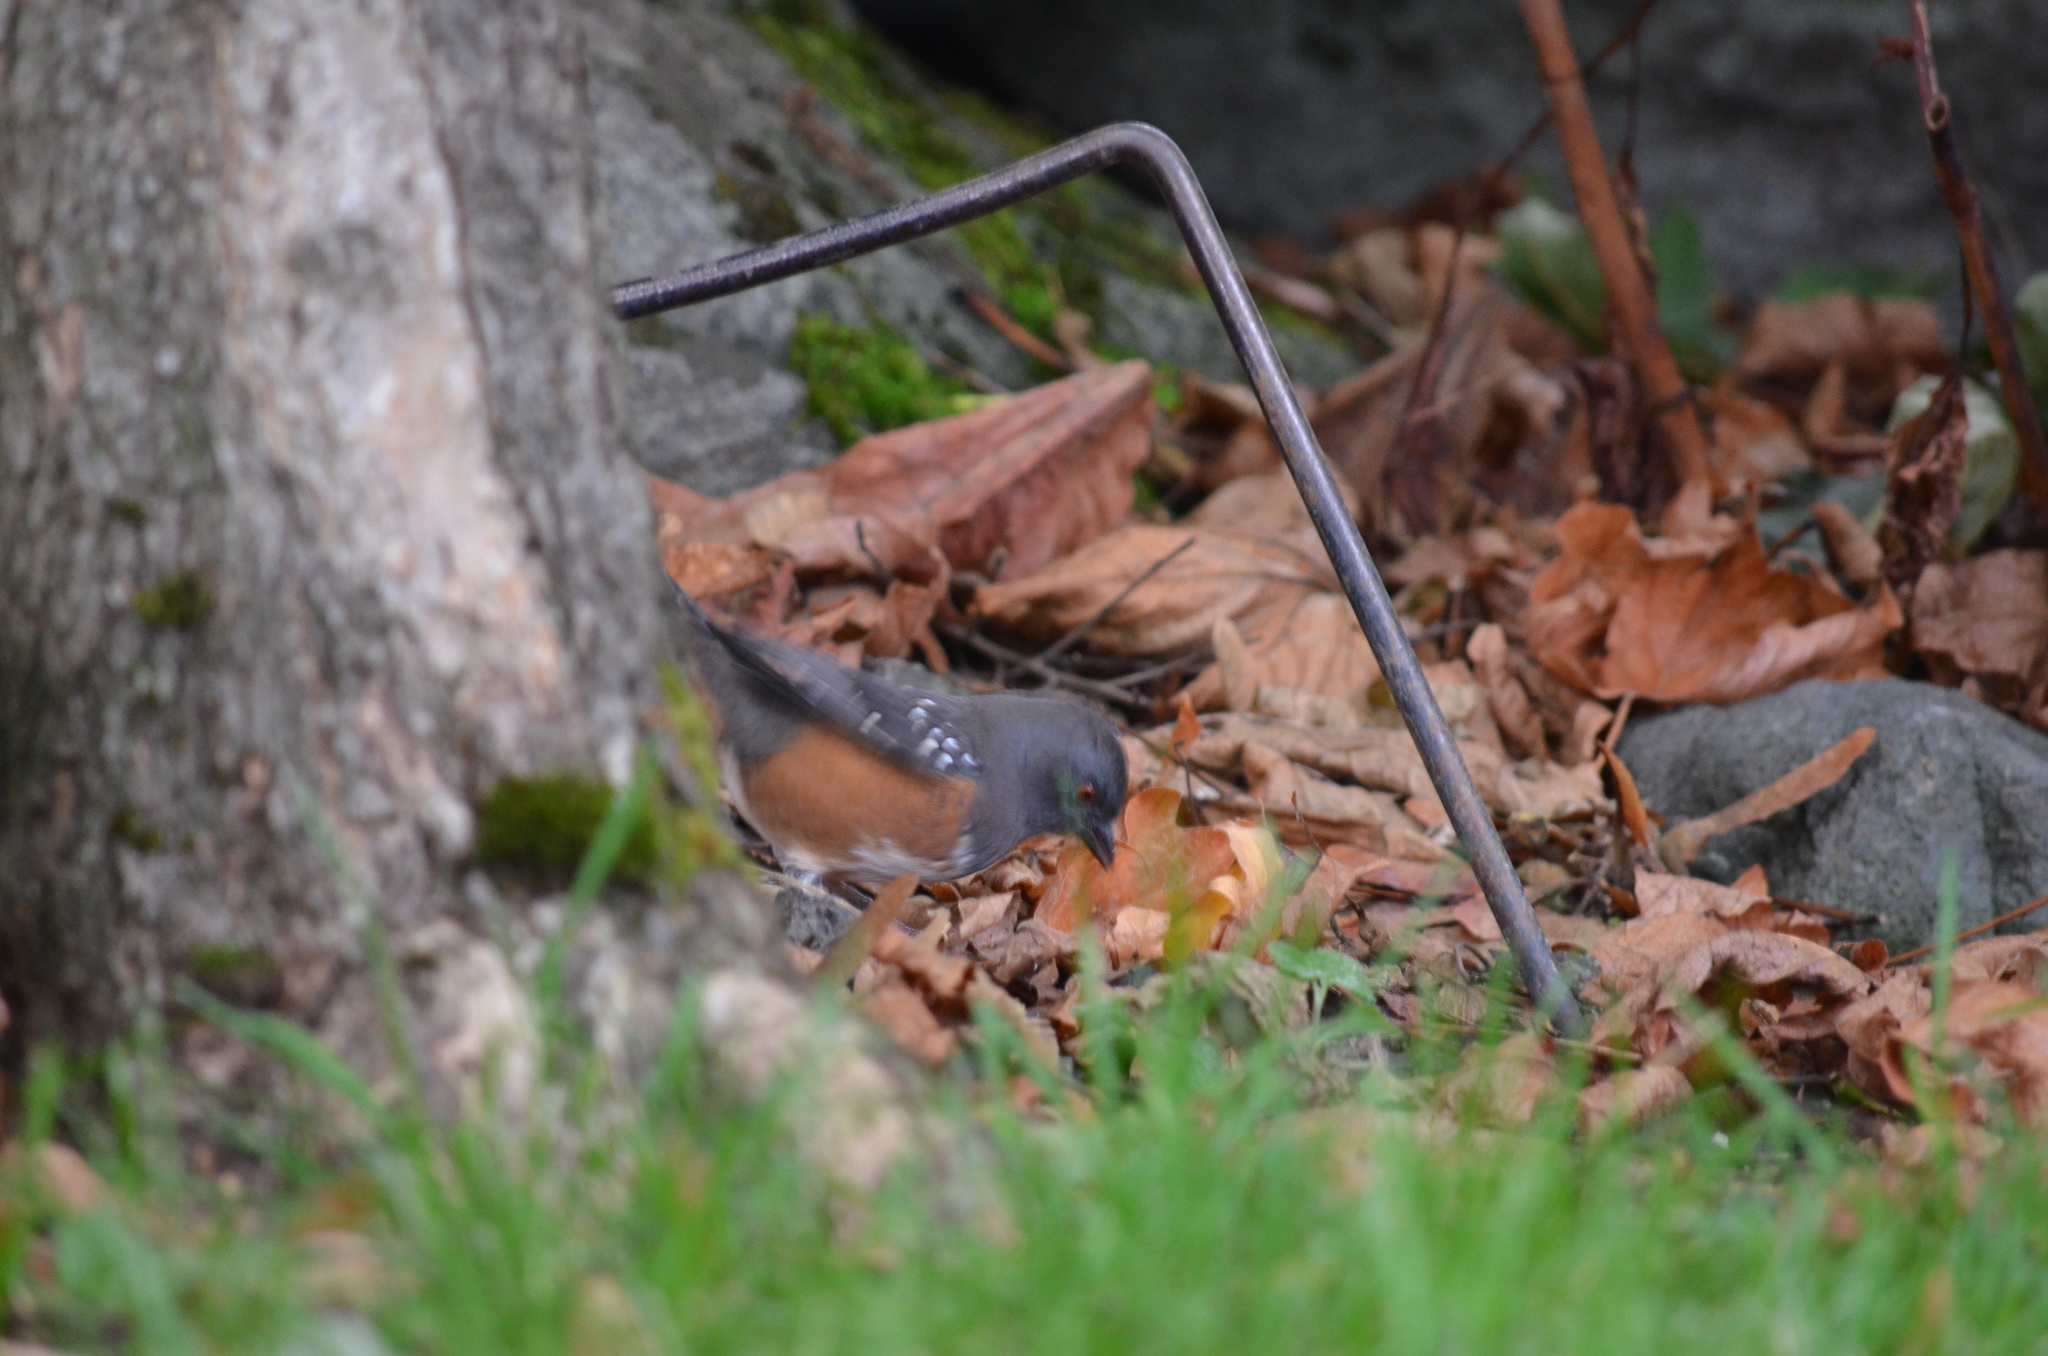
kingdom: Animalia
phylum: Chordata
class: Aves
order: Passeriformes
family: Passerellidae
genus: Pipilo
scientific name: Pipilo maculatus
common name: Spotted towhee
